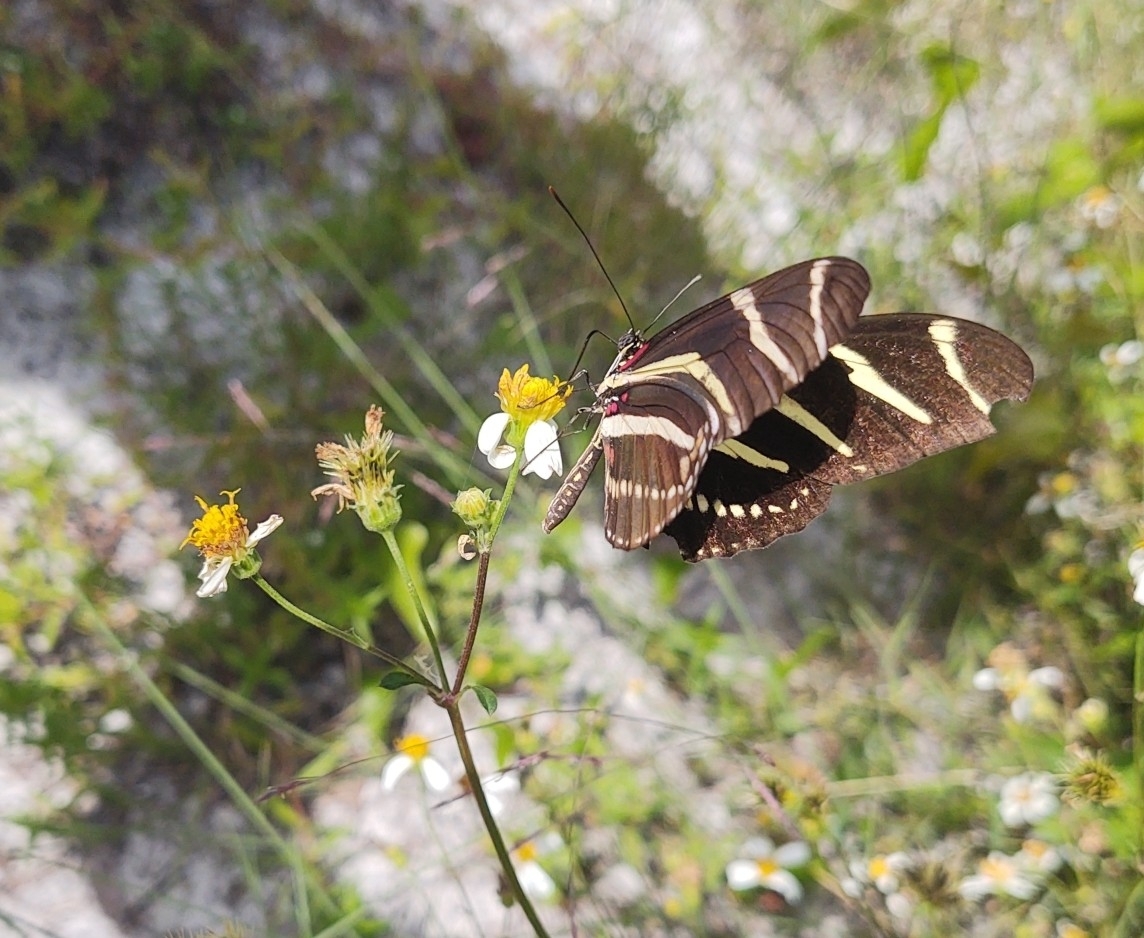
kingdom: Animalia
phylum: Arthropoda
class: Insecta
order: Lepidoptera
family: Nymphalidae
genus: Heliconius
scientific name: Heliconius charithonia
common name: Zebra long wing
